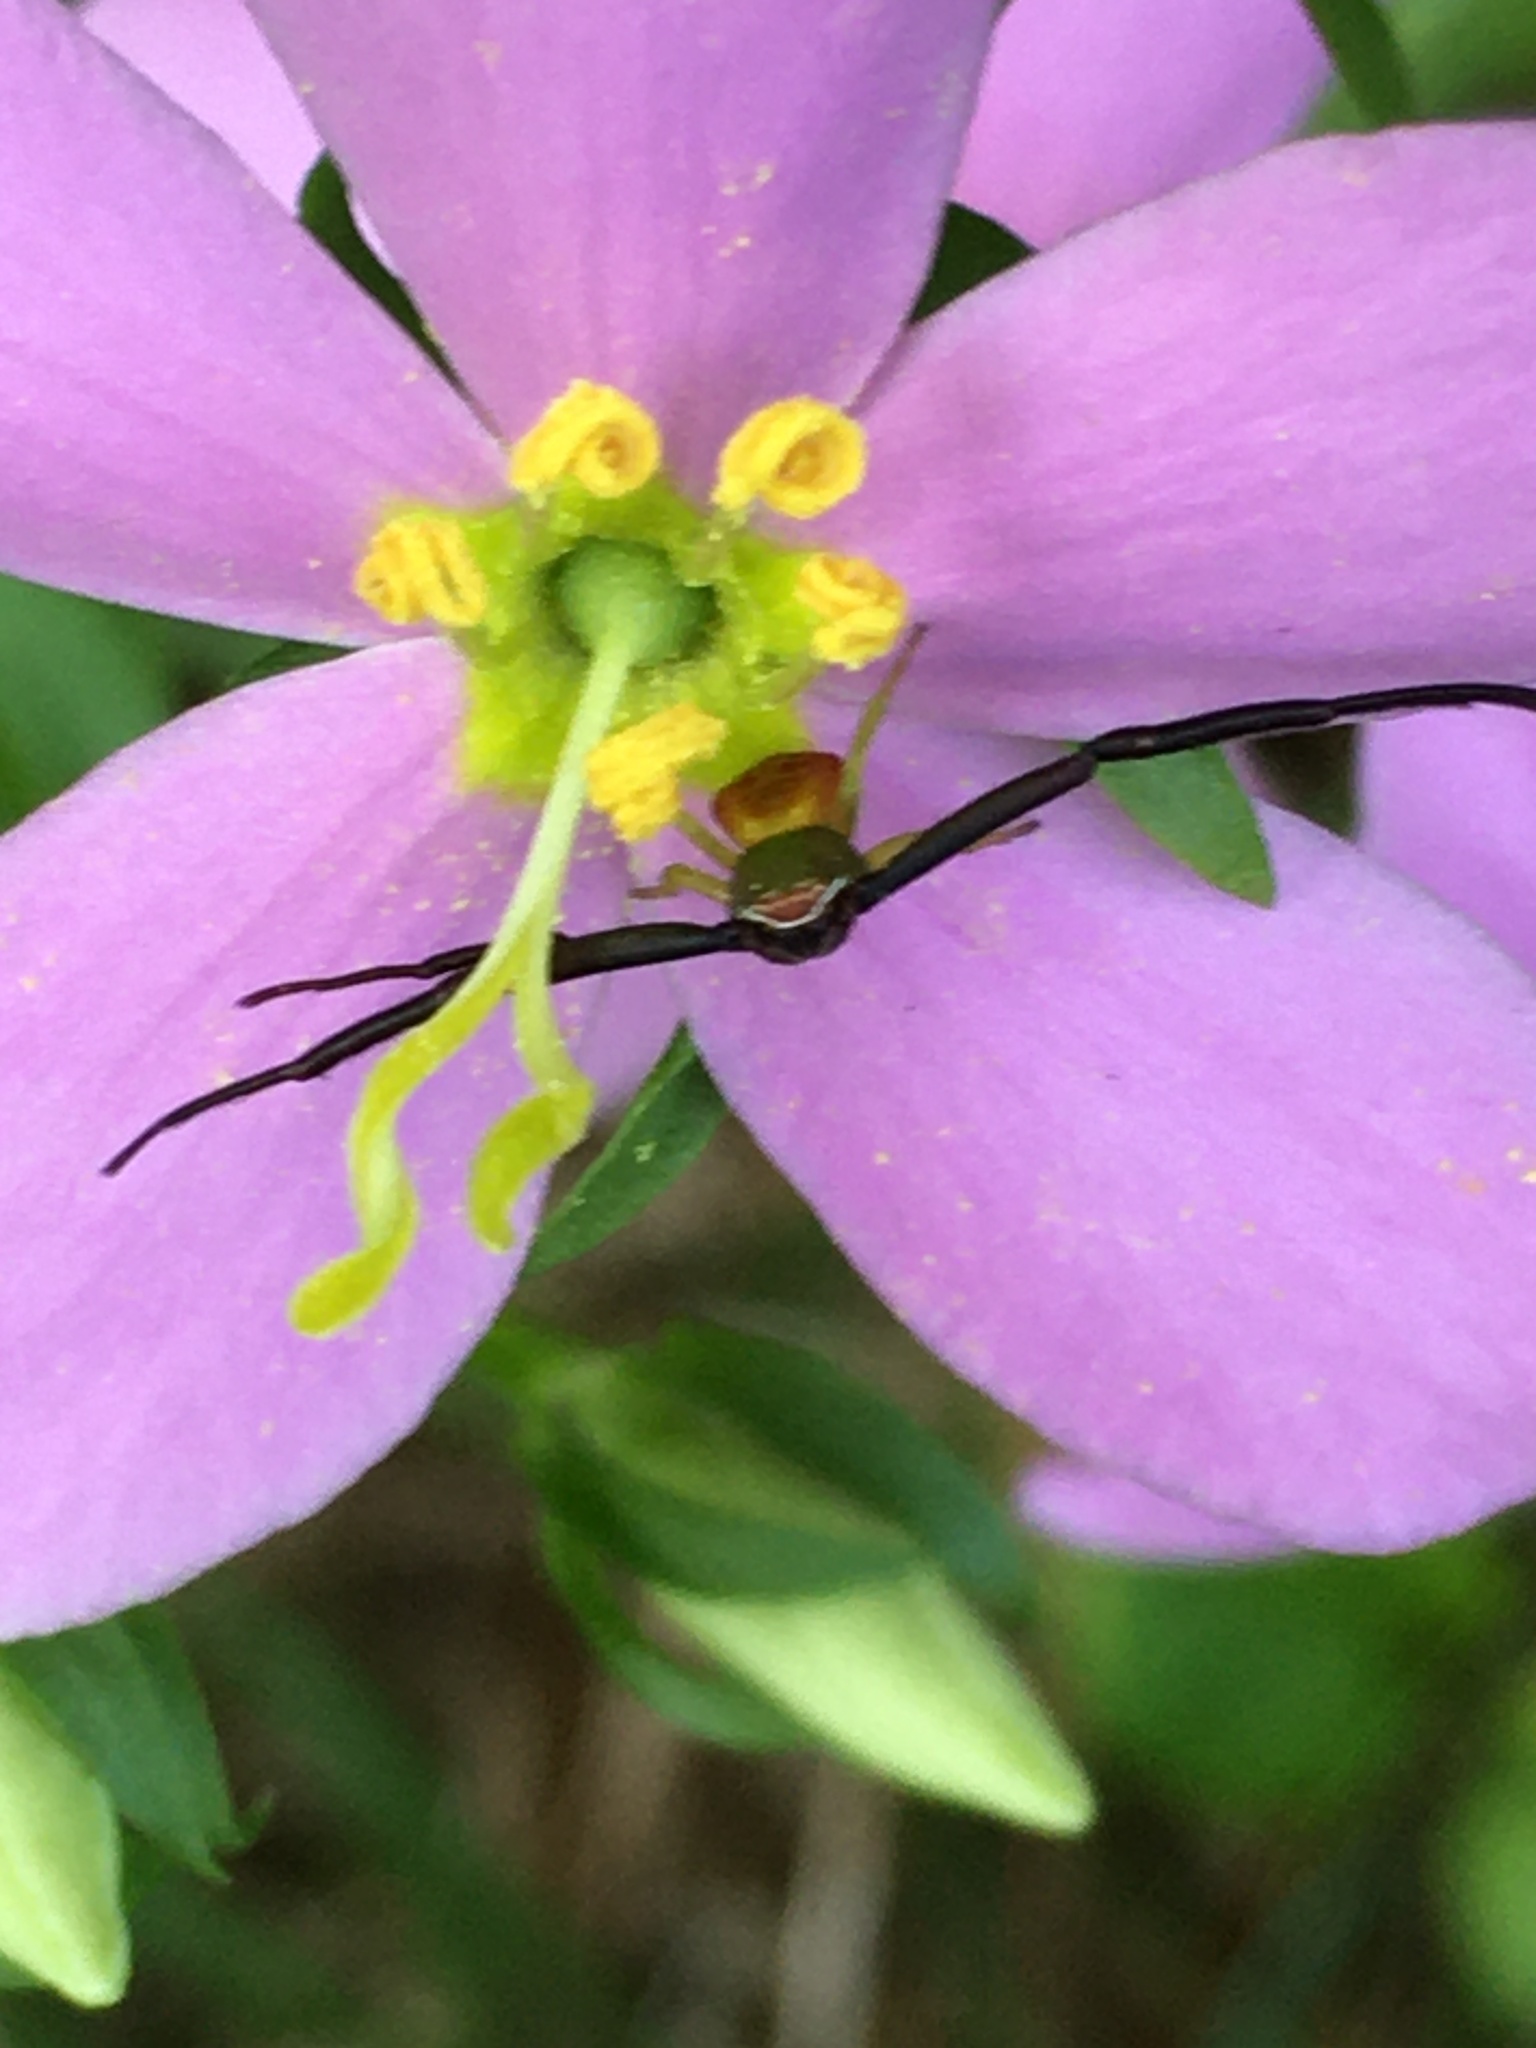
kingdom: Animalia
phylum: Arthropoda
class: Arachnida
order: Araneae
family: Thomisidae
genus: Misumenoides
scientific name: Misumenoides formosipes
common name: White-banded crab spider
